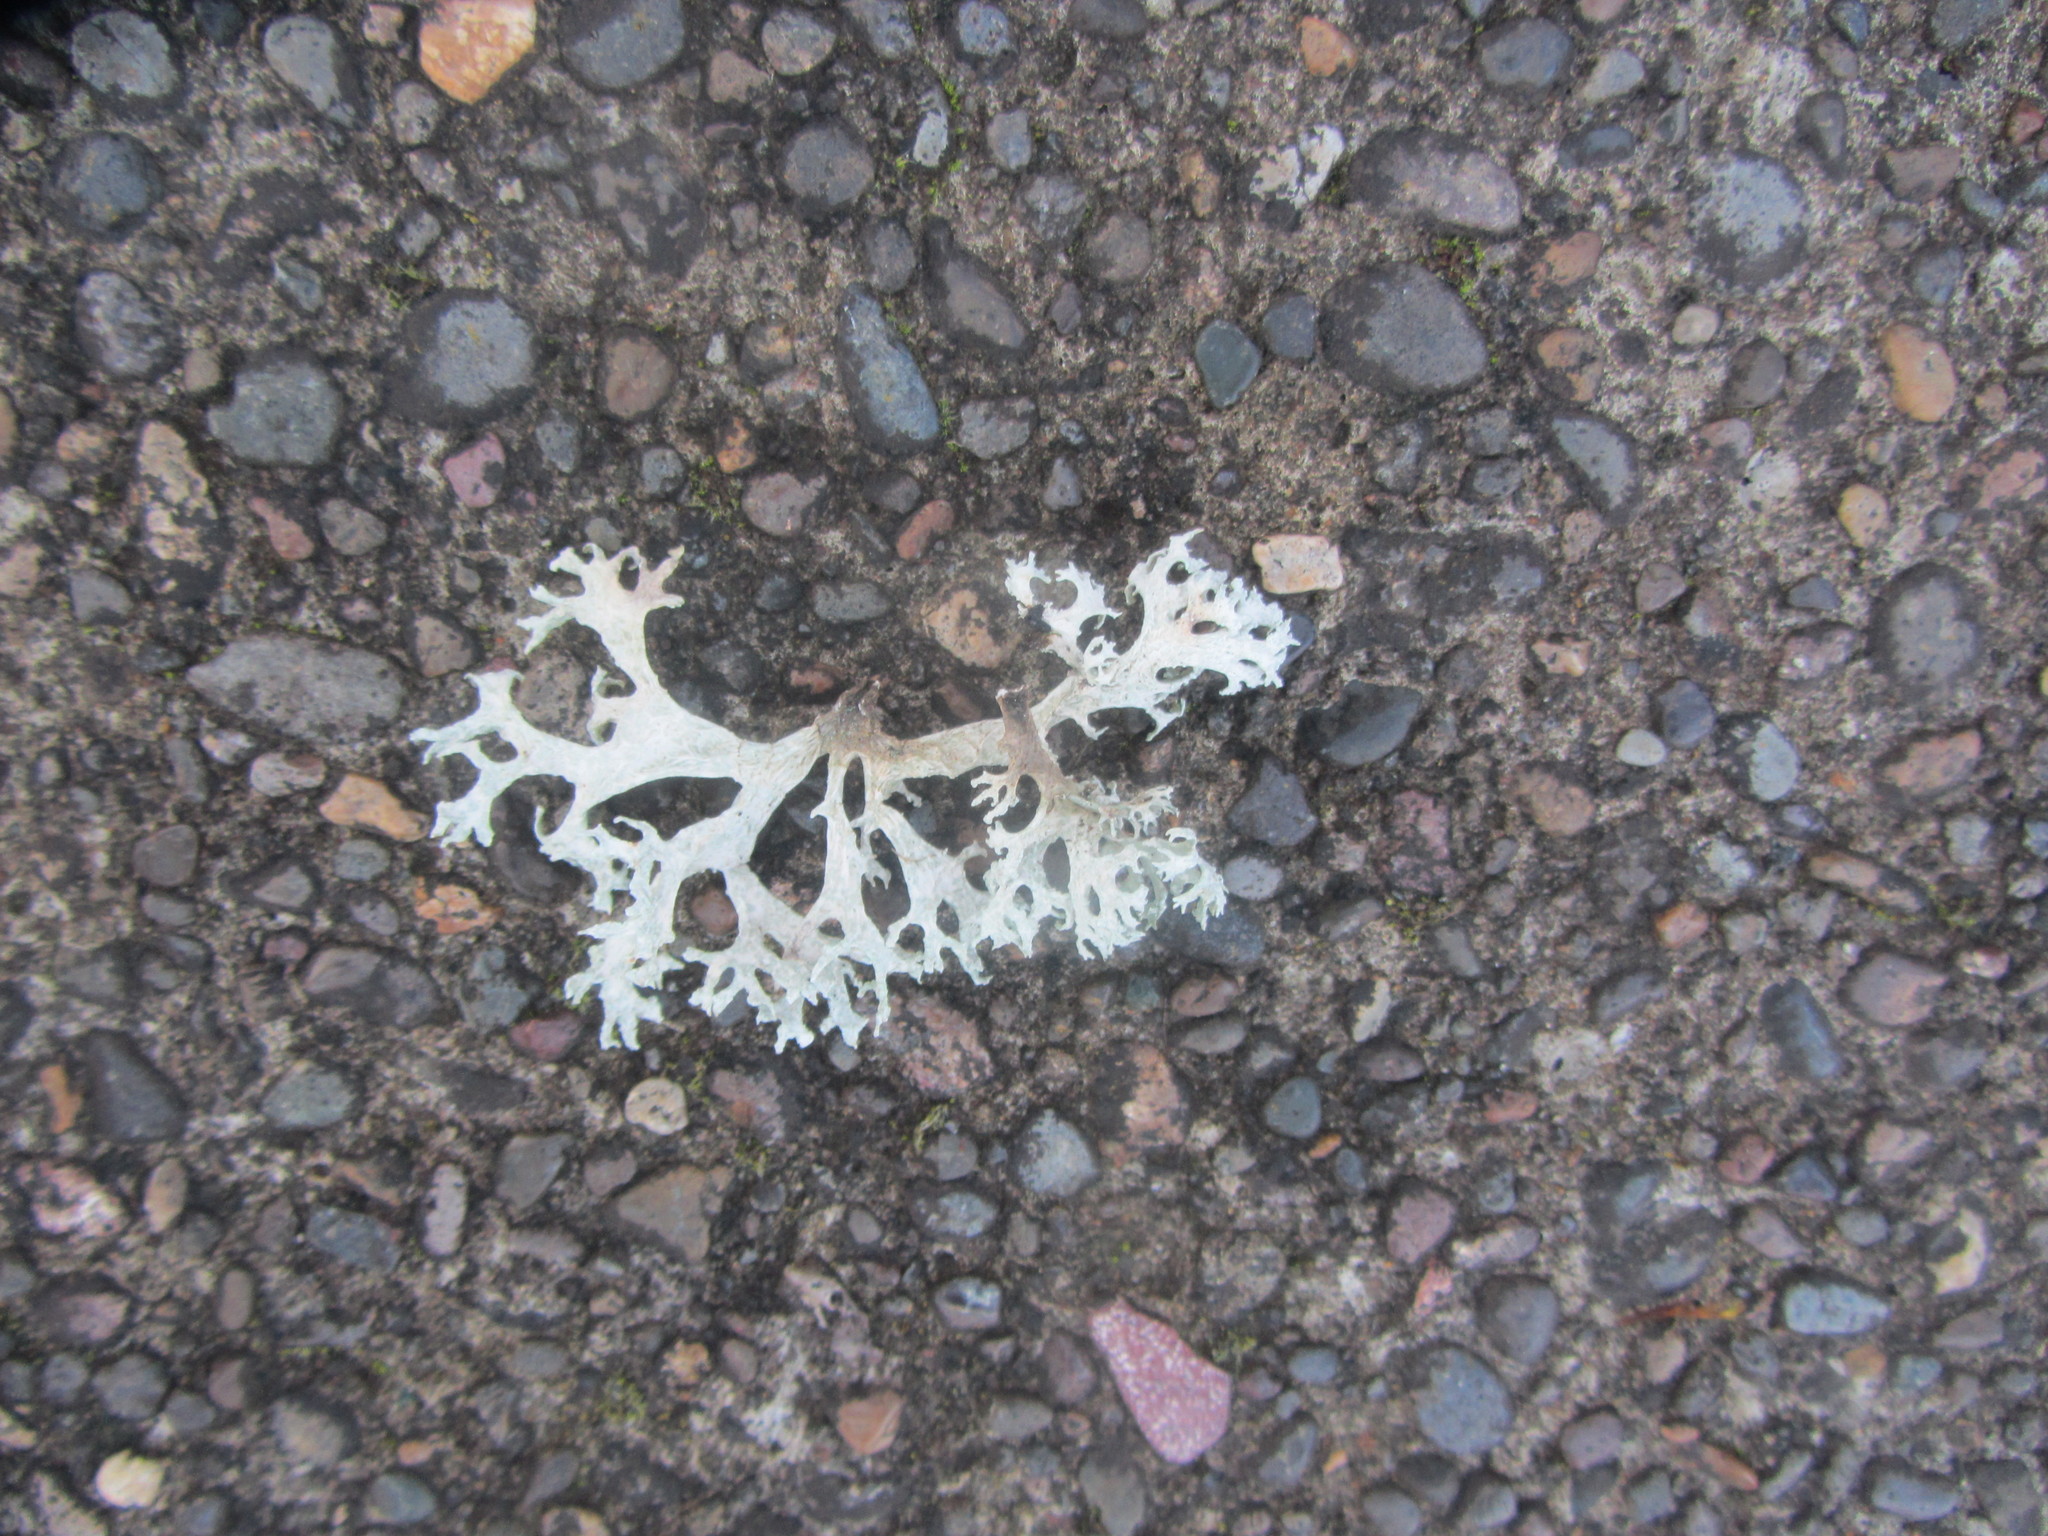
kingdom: Fungi
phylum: Ascomycota
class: Lecanoromycetes
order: Lecanorales
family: Parmeliaceae
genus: Evernia
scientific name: Evernia prunastri
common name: Oak moss
